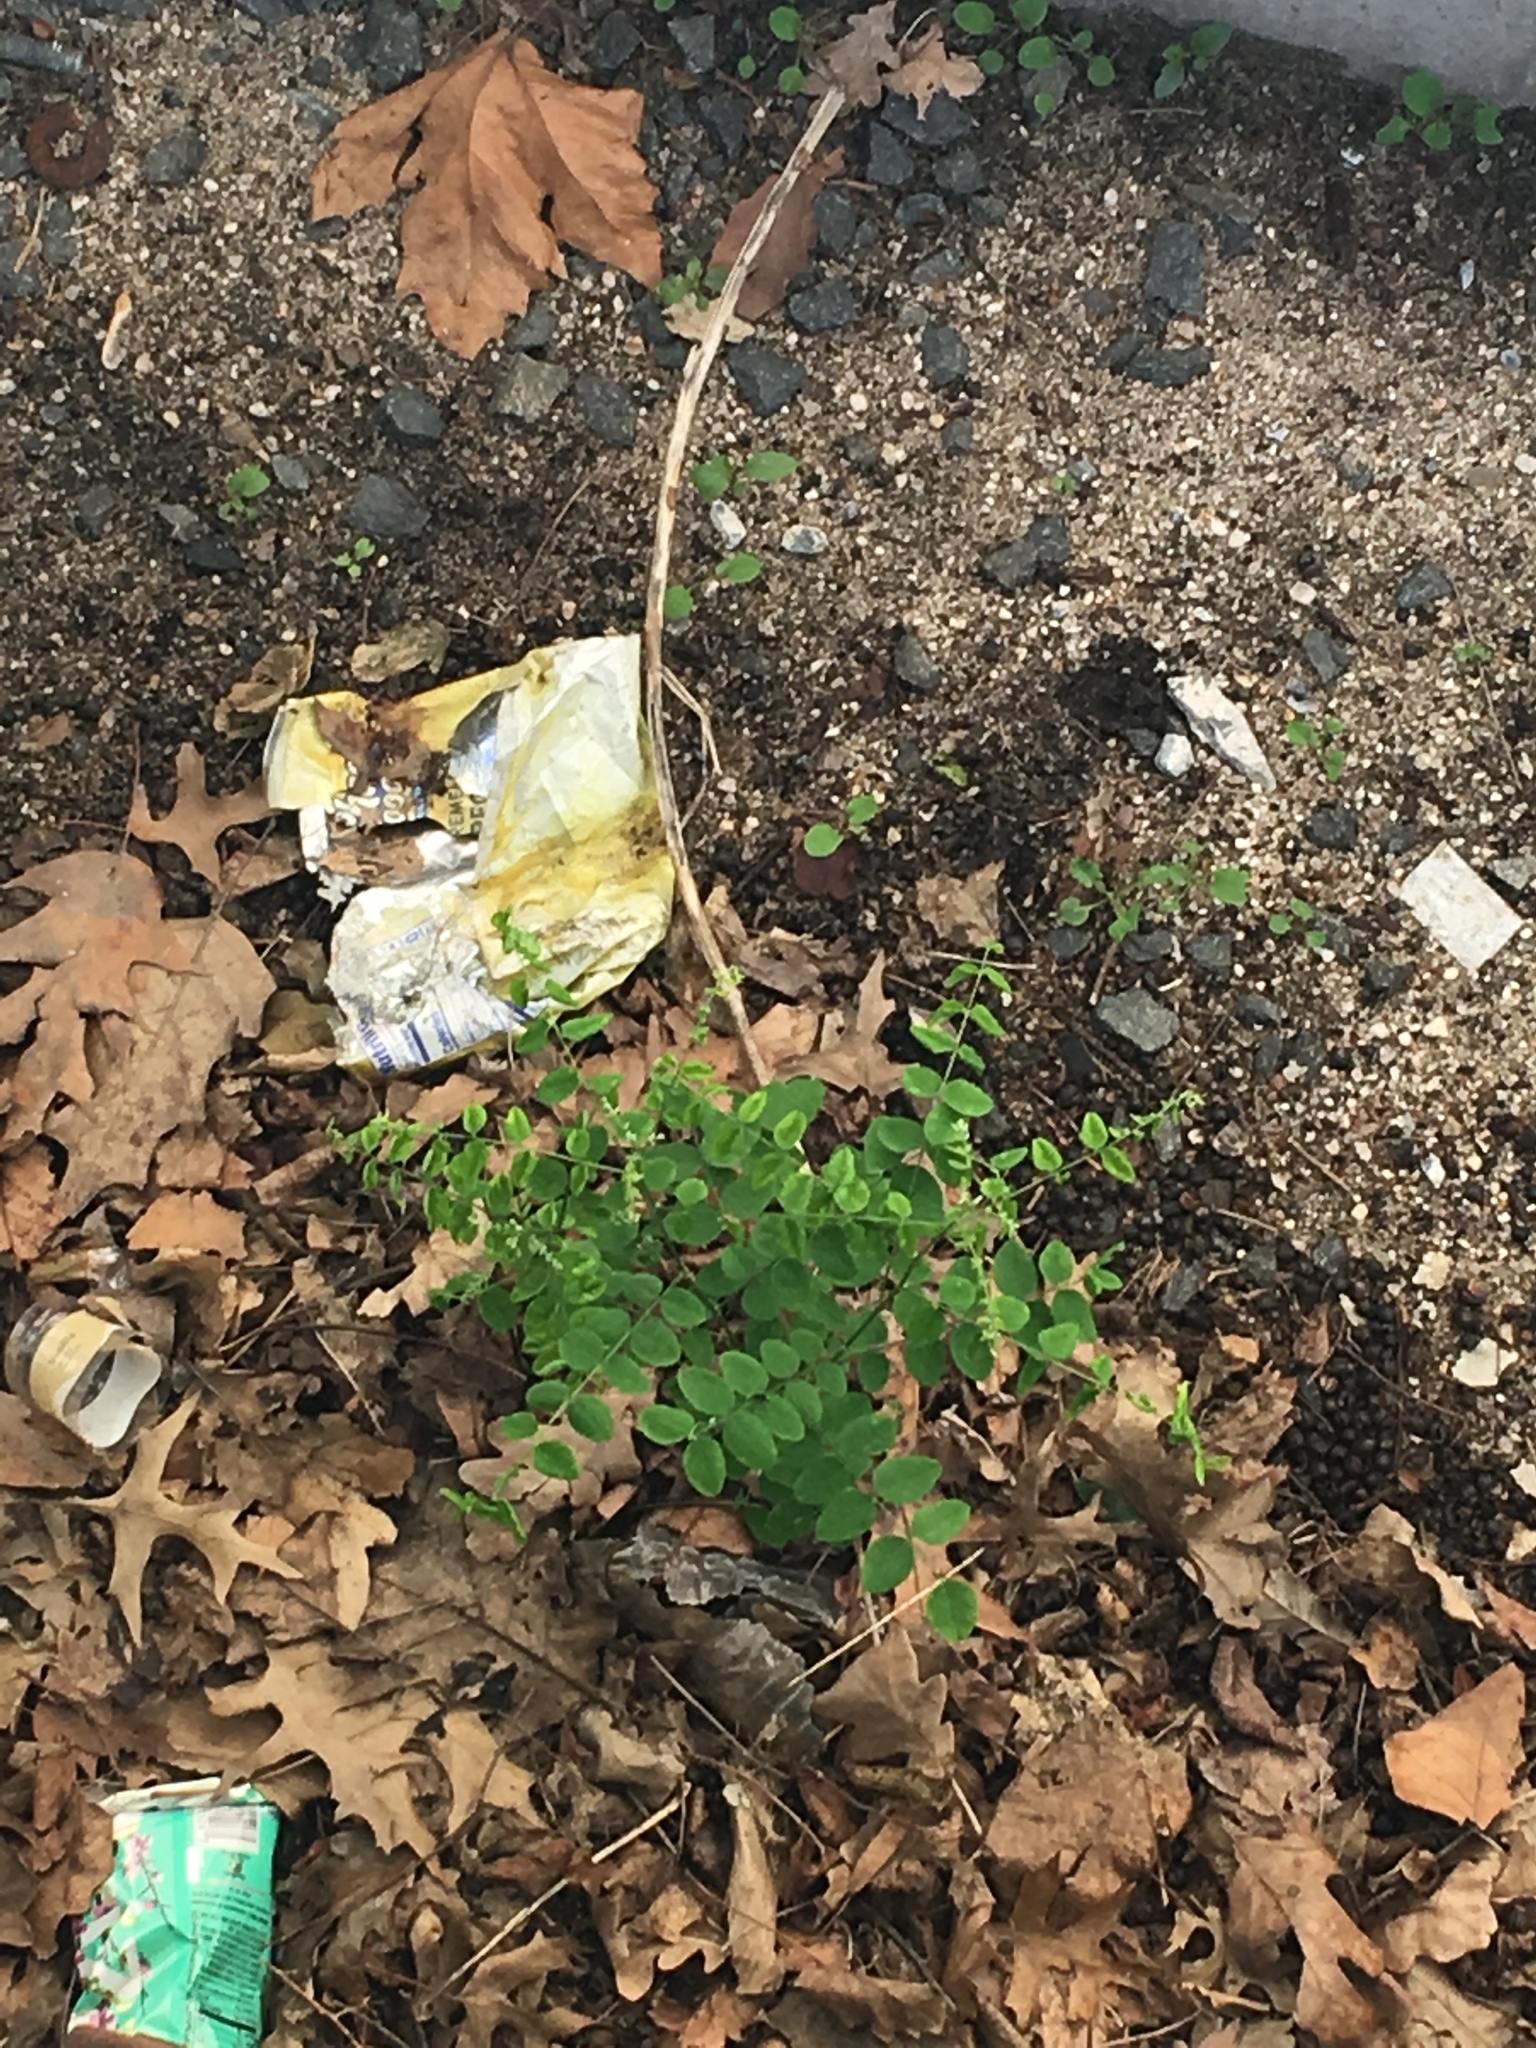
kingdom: Plantae
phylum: Tracheophyta
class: Magnoliopsida
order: Fabales
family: Fabaceae
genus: Robinia
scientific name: Robinia pseudoacacia
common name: Black locust
